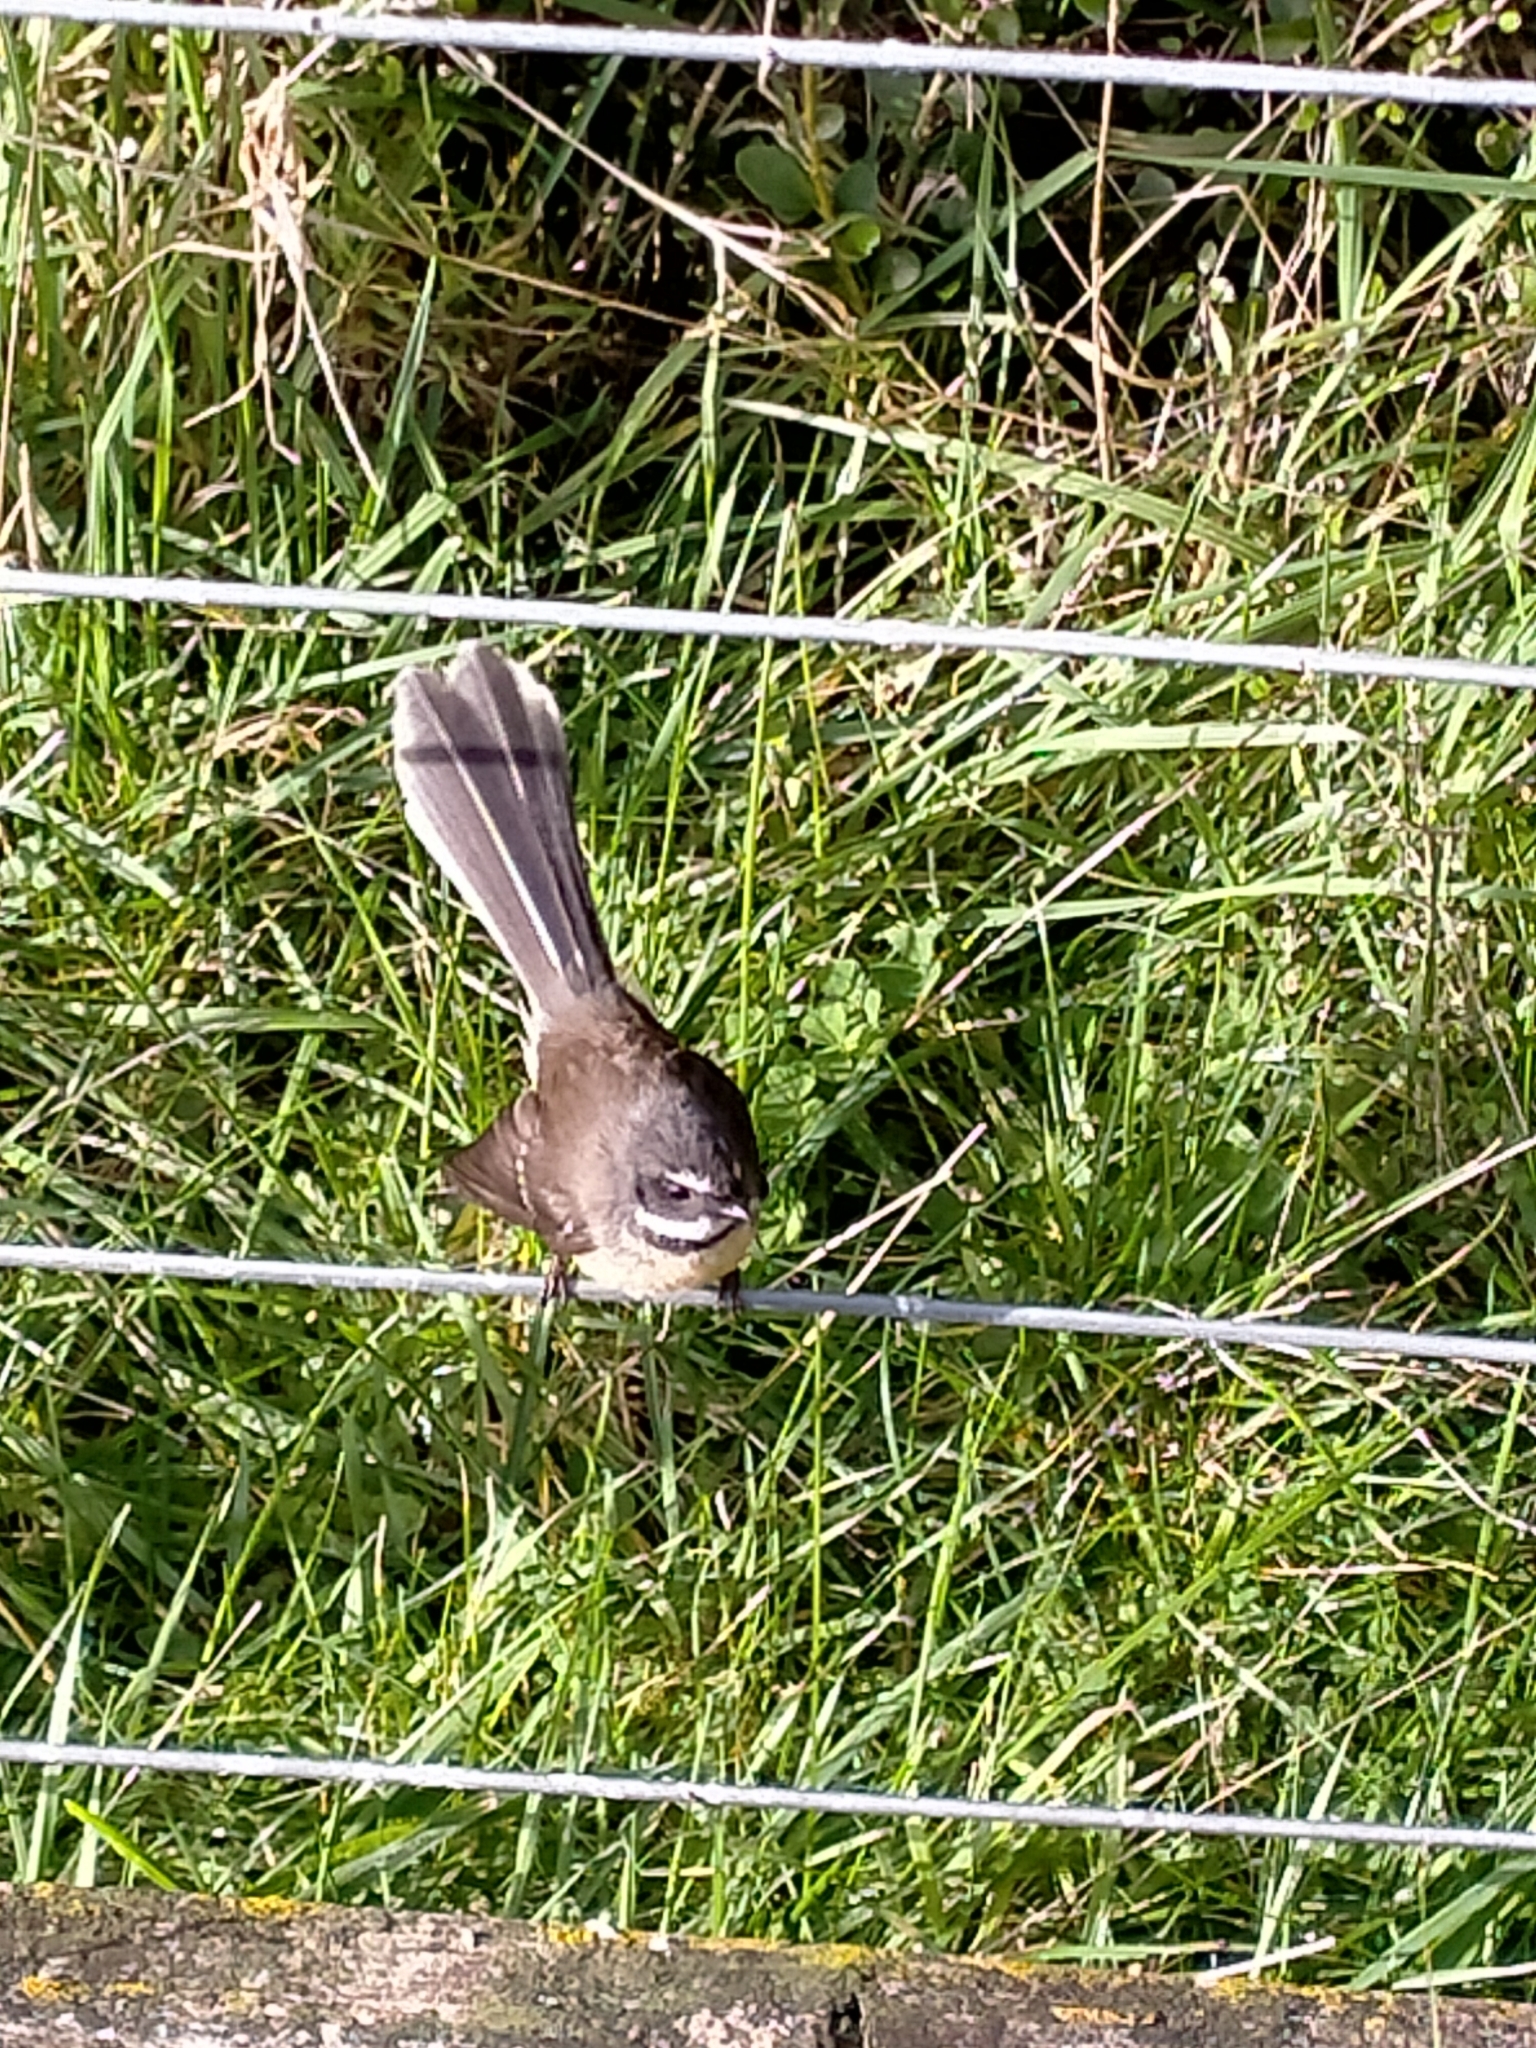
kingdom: Animalia
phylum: Chordata
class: Aves
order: Passeriformes
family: Rhipiduridae
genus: Rhipidura
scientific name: Rhipidura fuliginosa
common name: New zealand fantail
